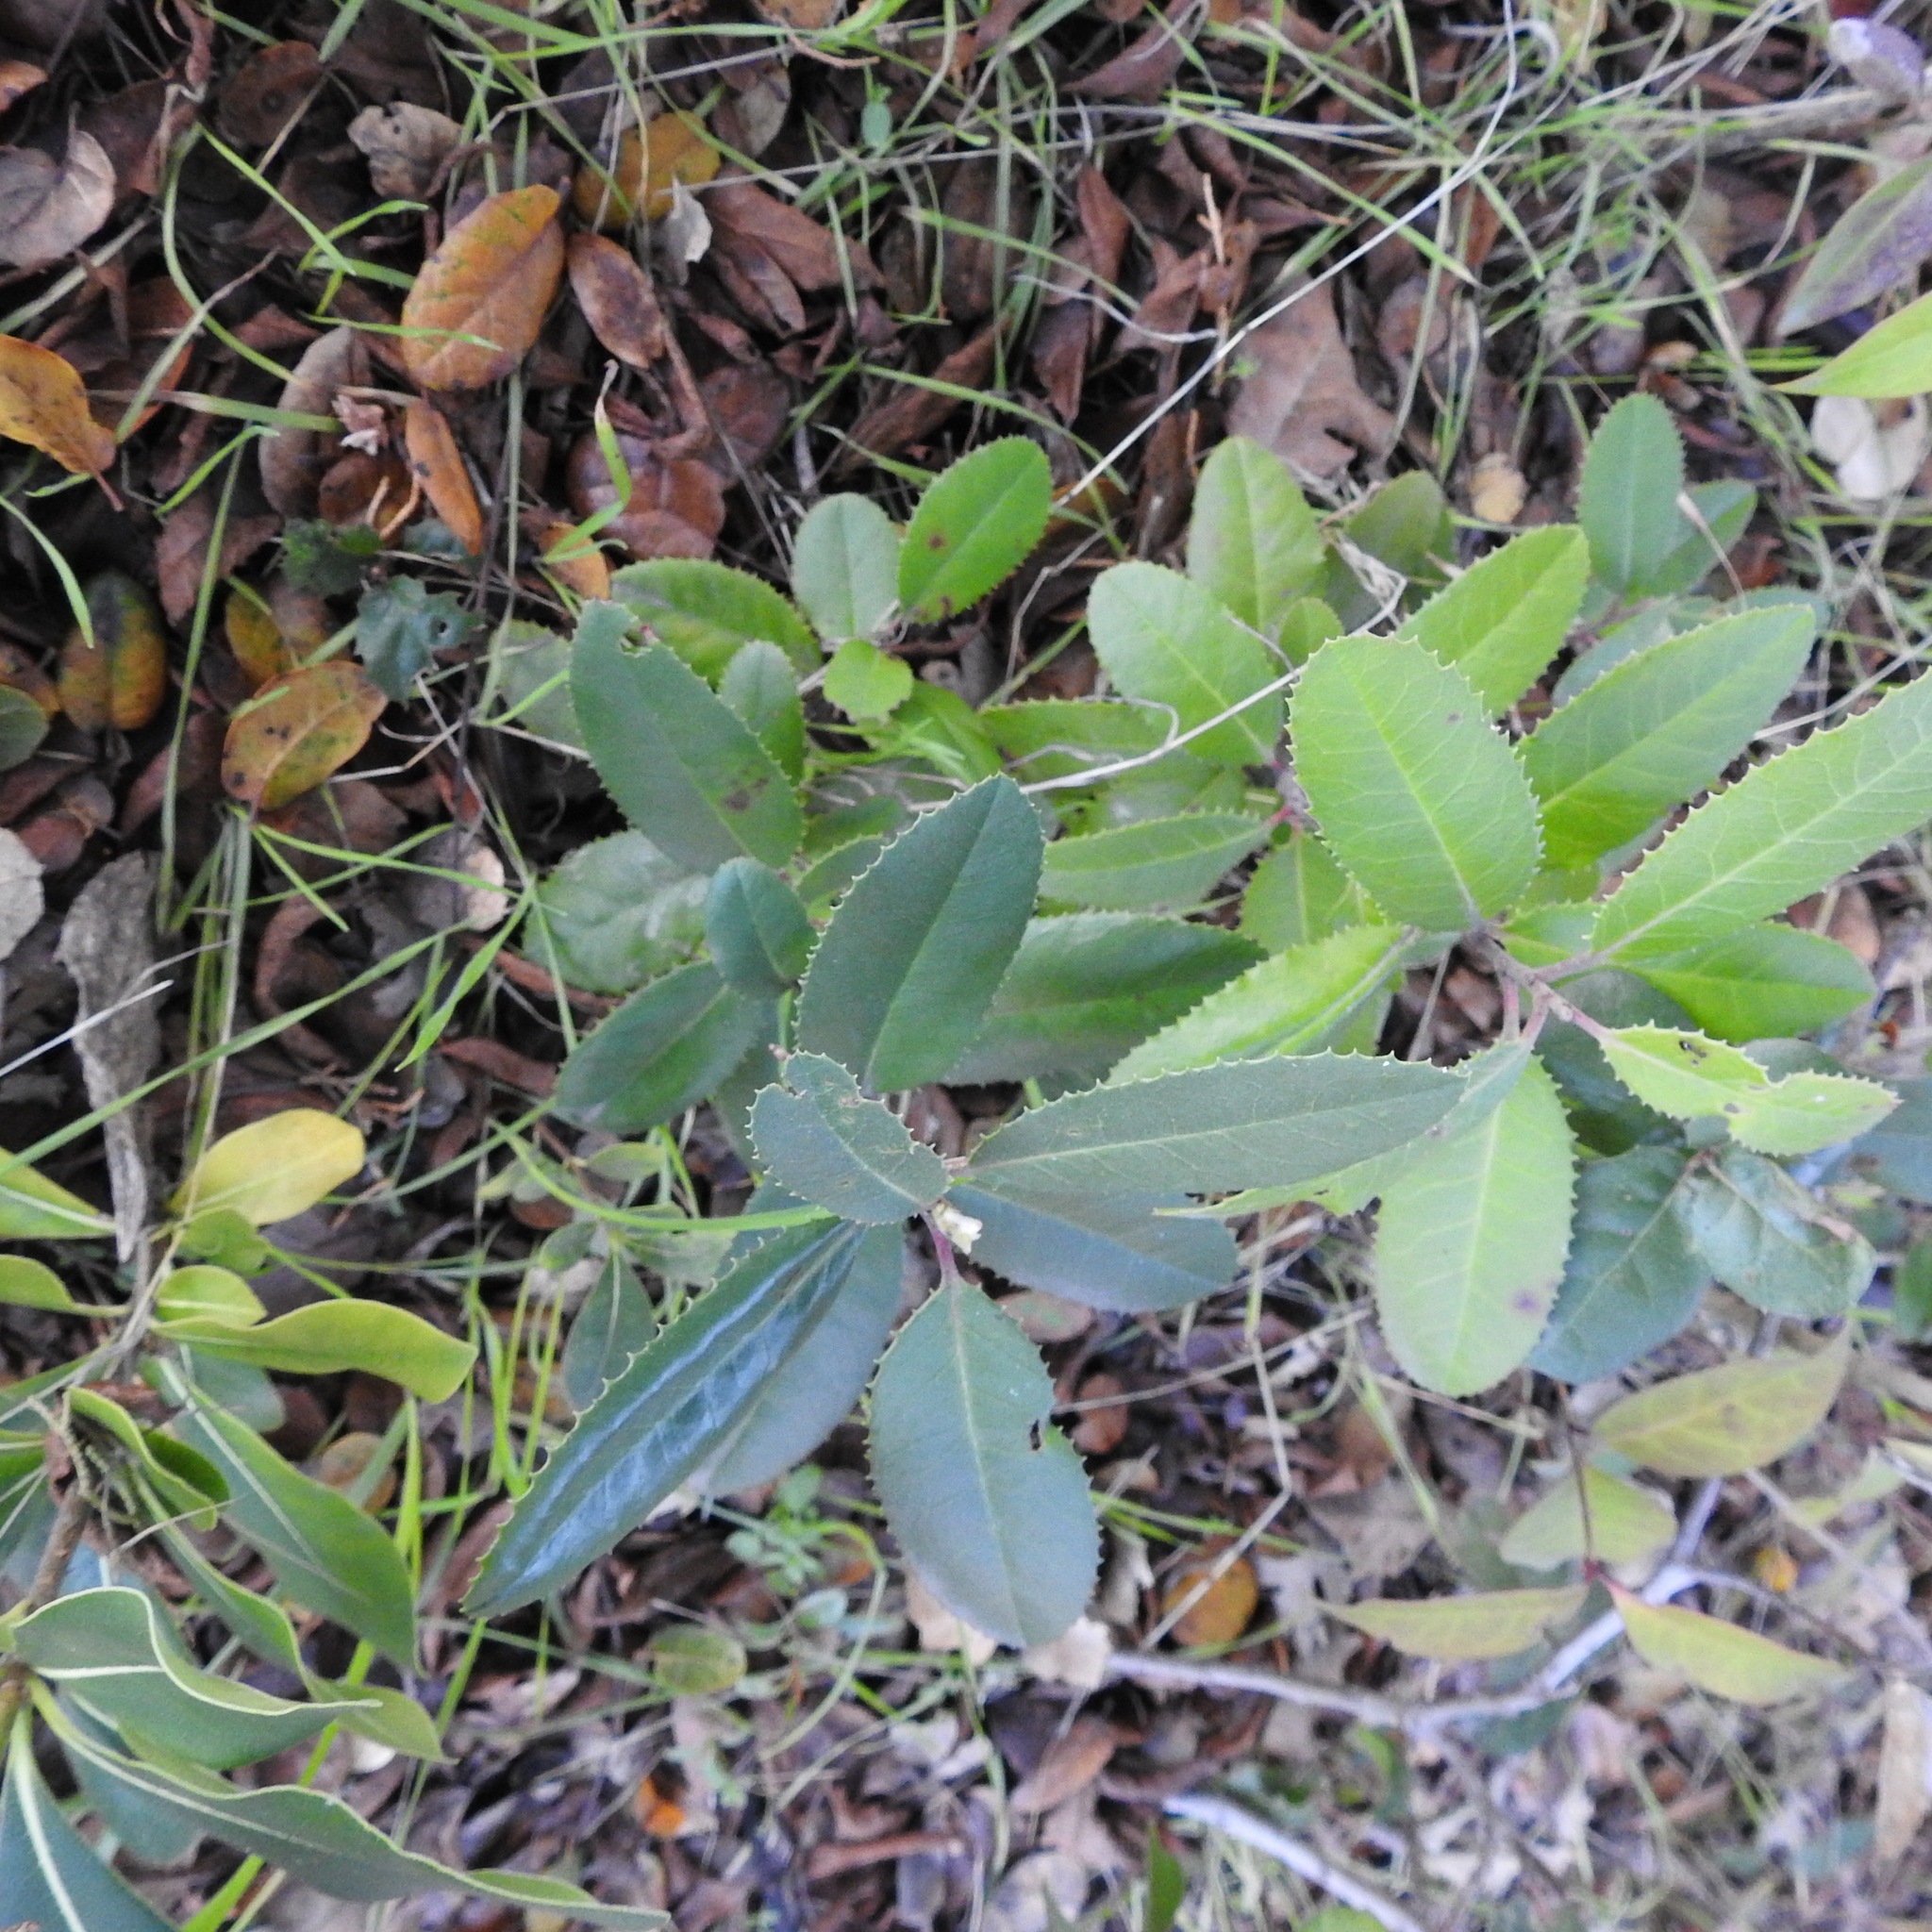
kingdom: Plantae
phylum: Tracheophyta
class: Magnoliopsida
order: Rosales
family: Rosaceae
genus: Heteromeles
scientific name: Heteromeles arbutifolia
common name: California-holly
